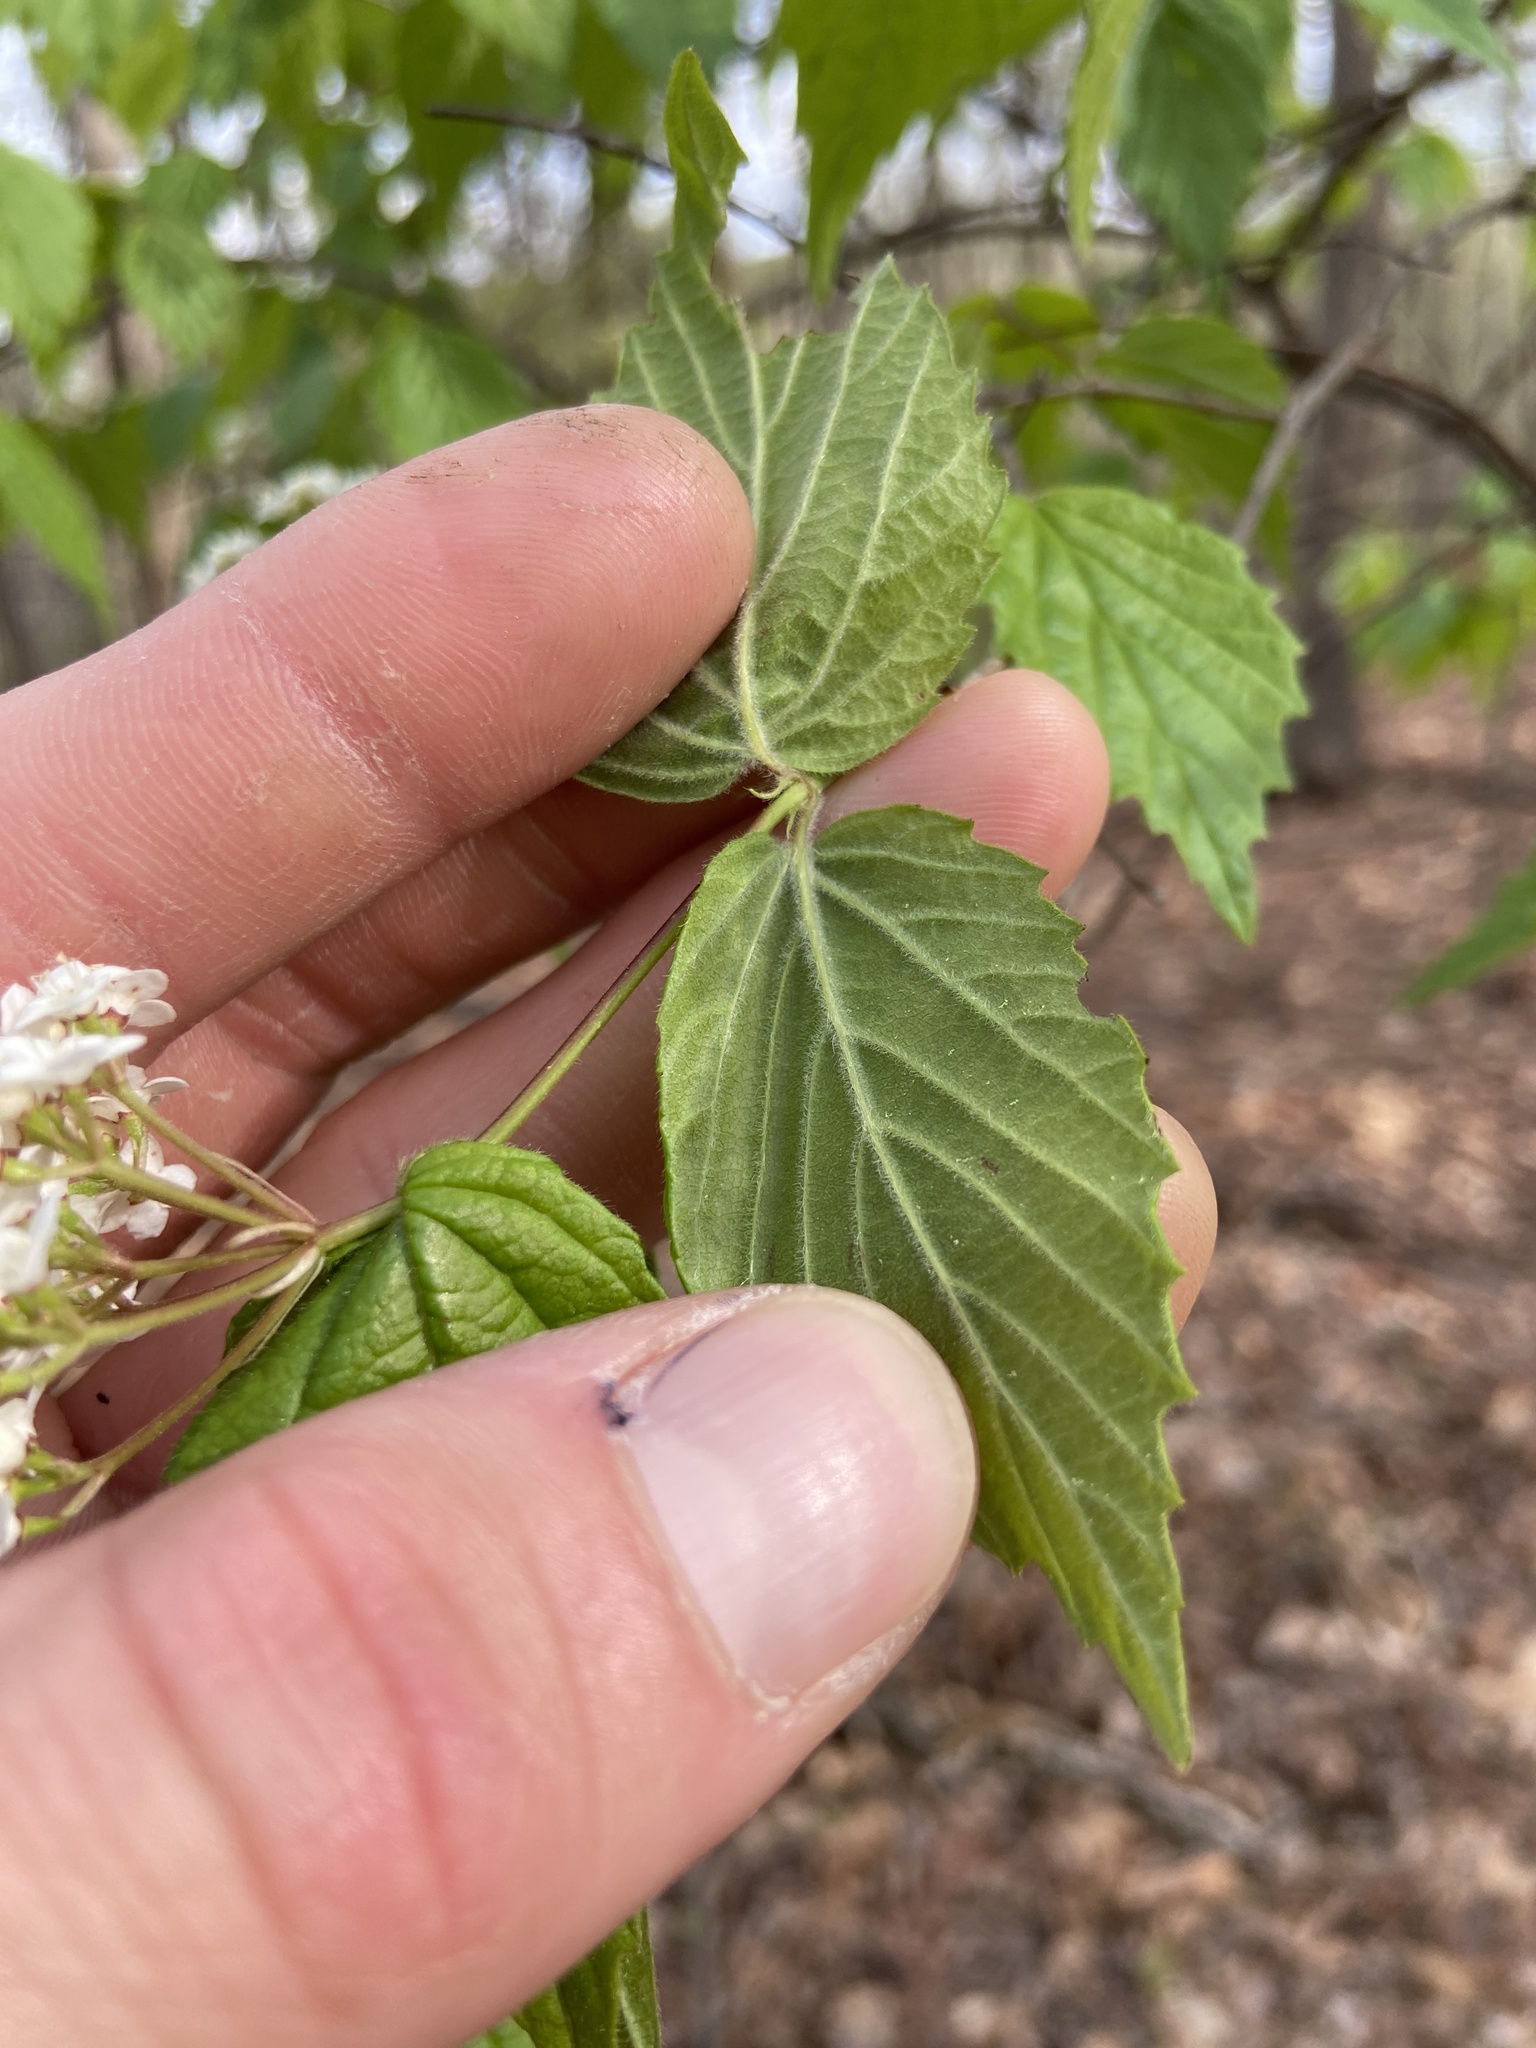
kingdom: Plantae
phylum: Tracheophyta
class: Magnoliopsida
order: Dipsacales
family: Viburnaceae
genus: Viburnum
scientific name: Viburnum rafinesqueanum
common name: Downy arrow-wood
